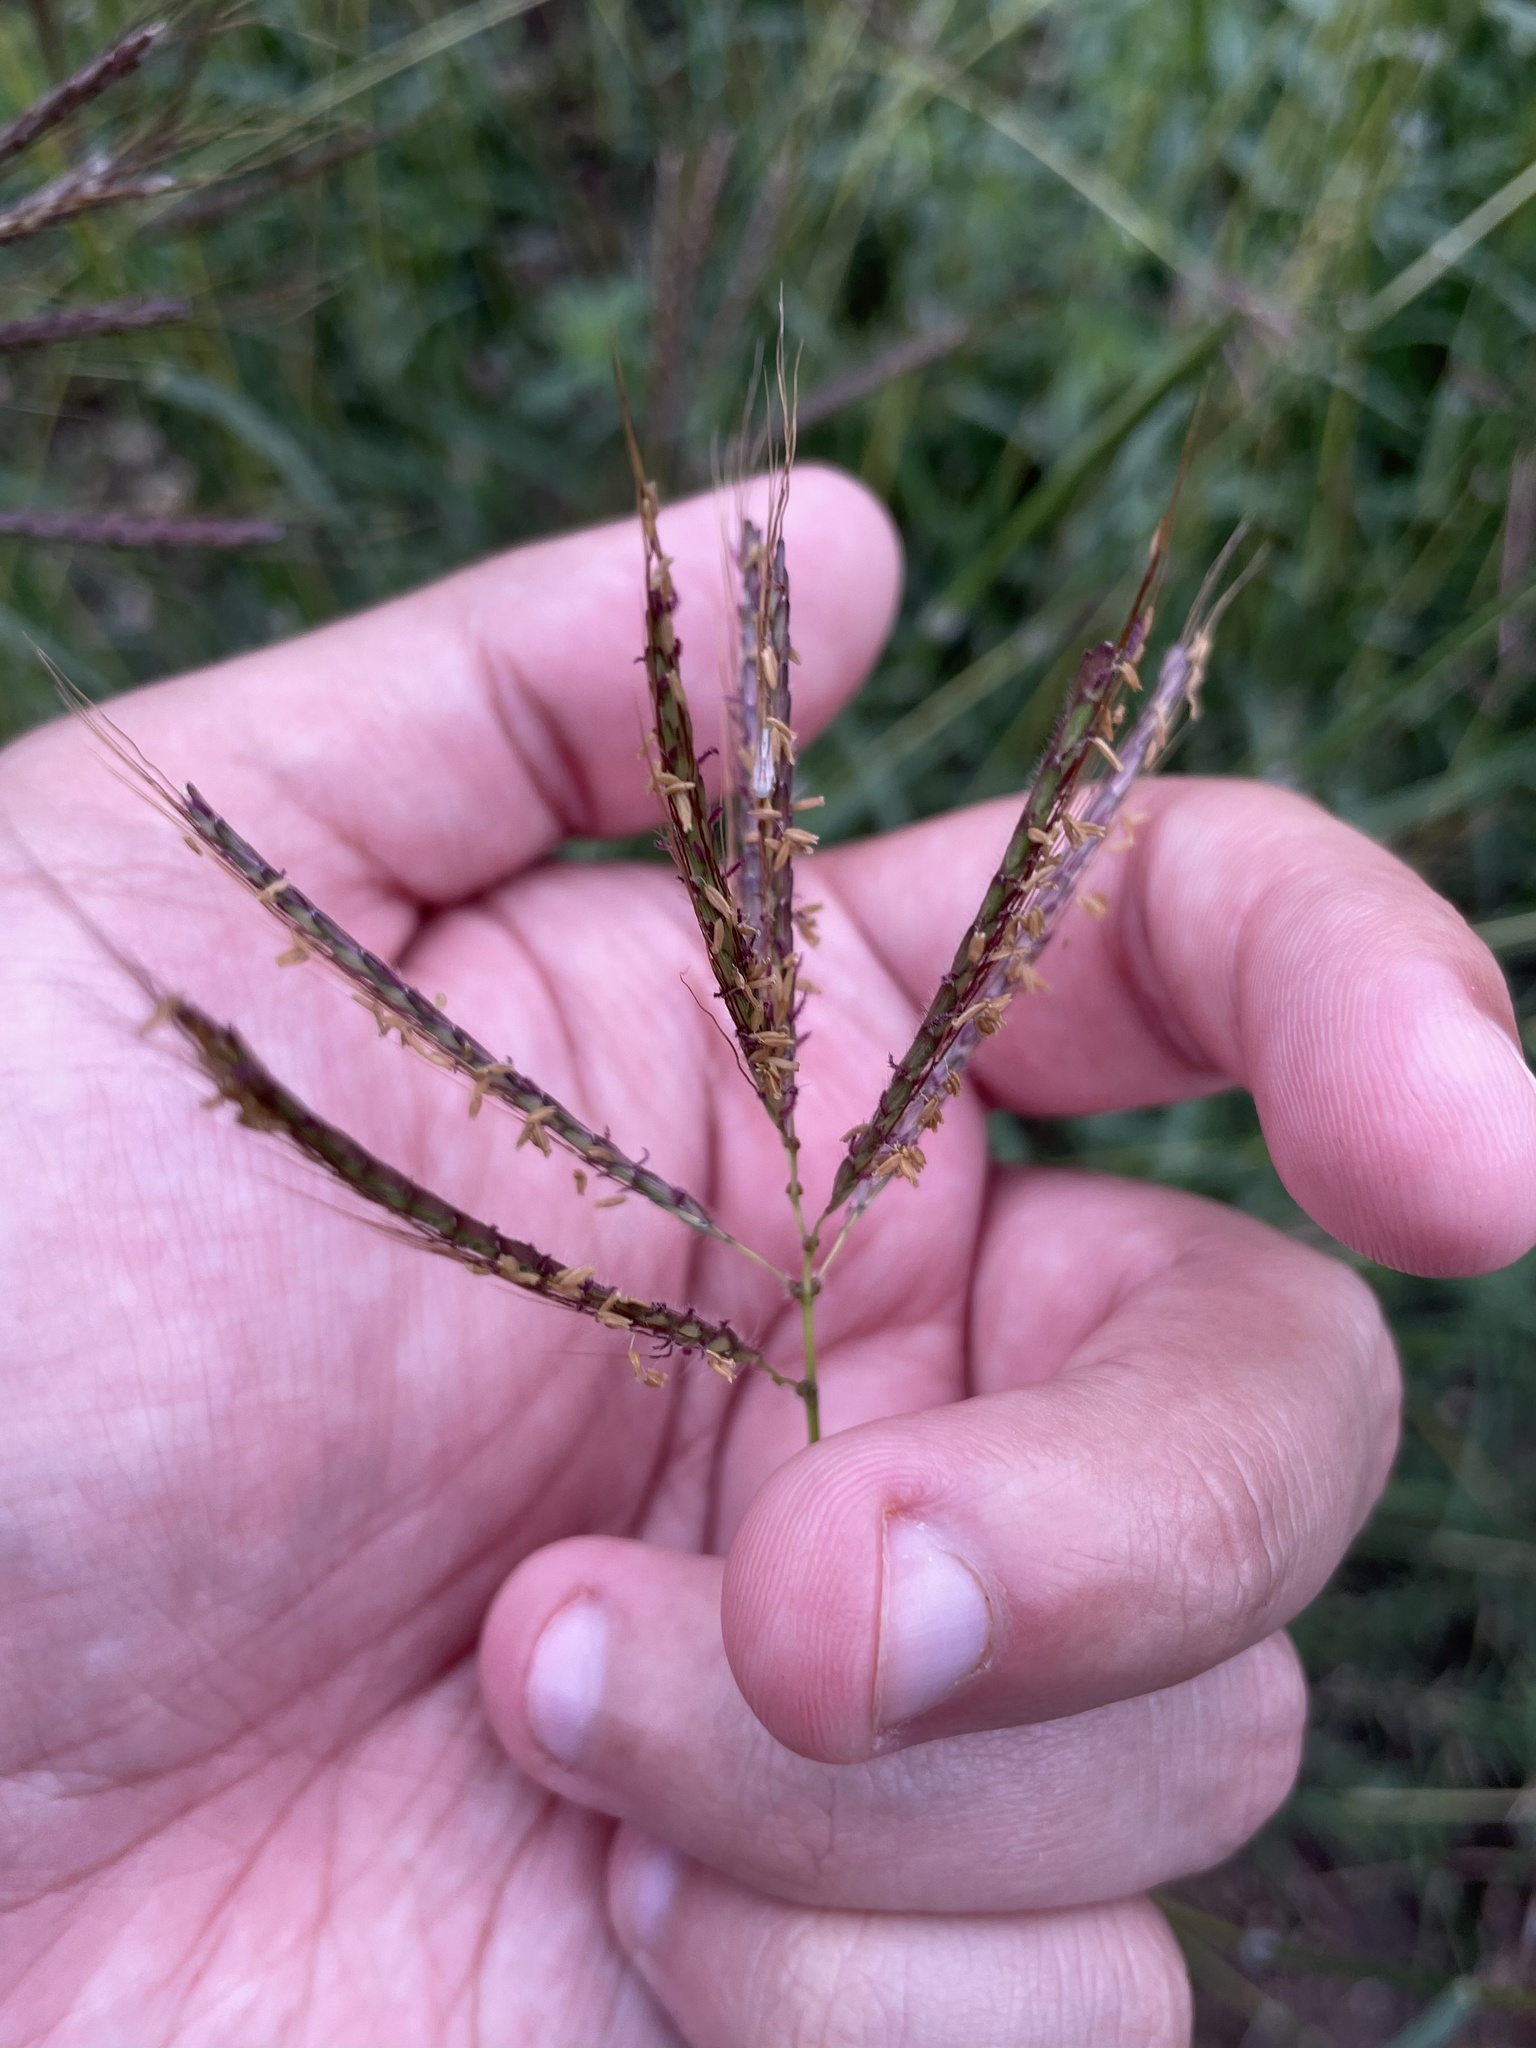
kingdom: Plantae
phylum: Tracheophyta
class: Liliopsida
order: Poales
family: Poaceae
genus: Dichanthium
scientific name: Dichanthium annulatum
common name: Kleberg's bluestem
